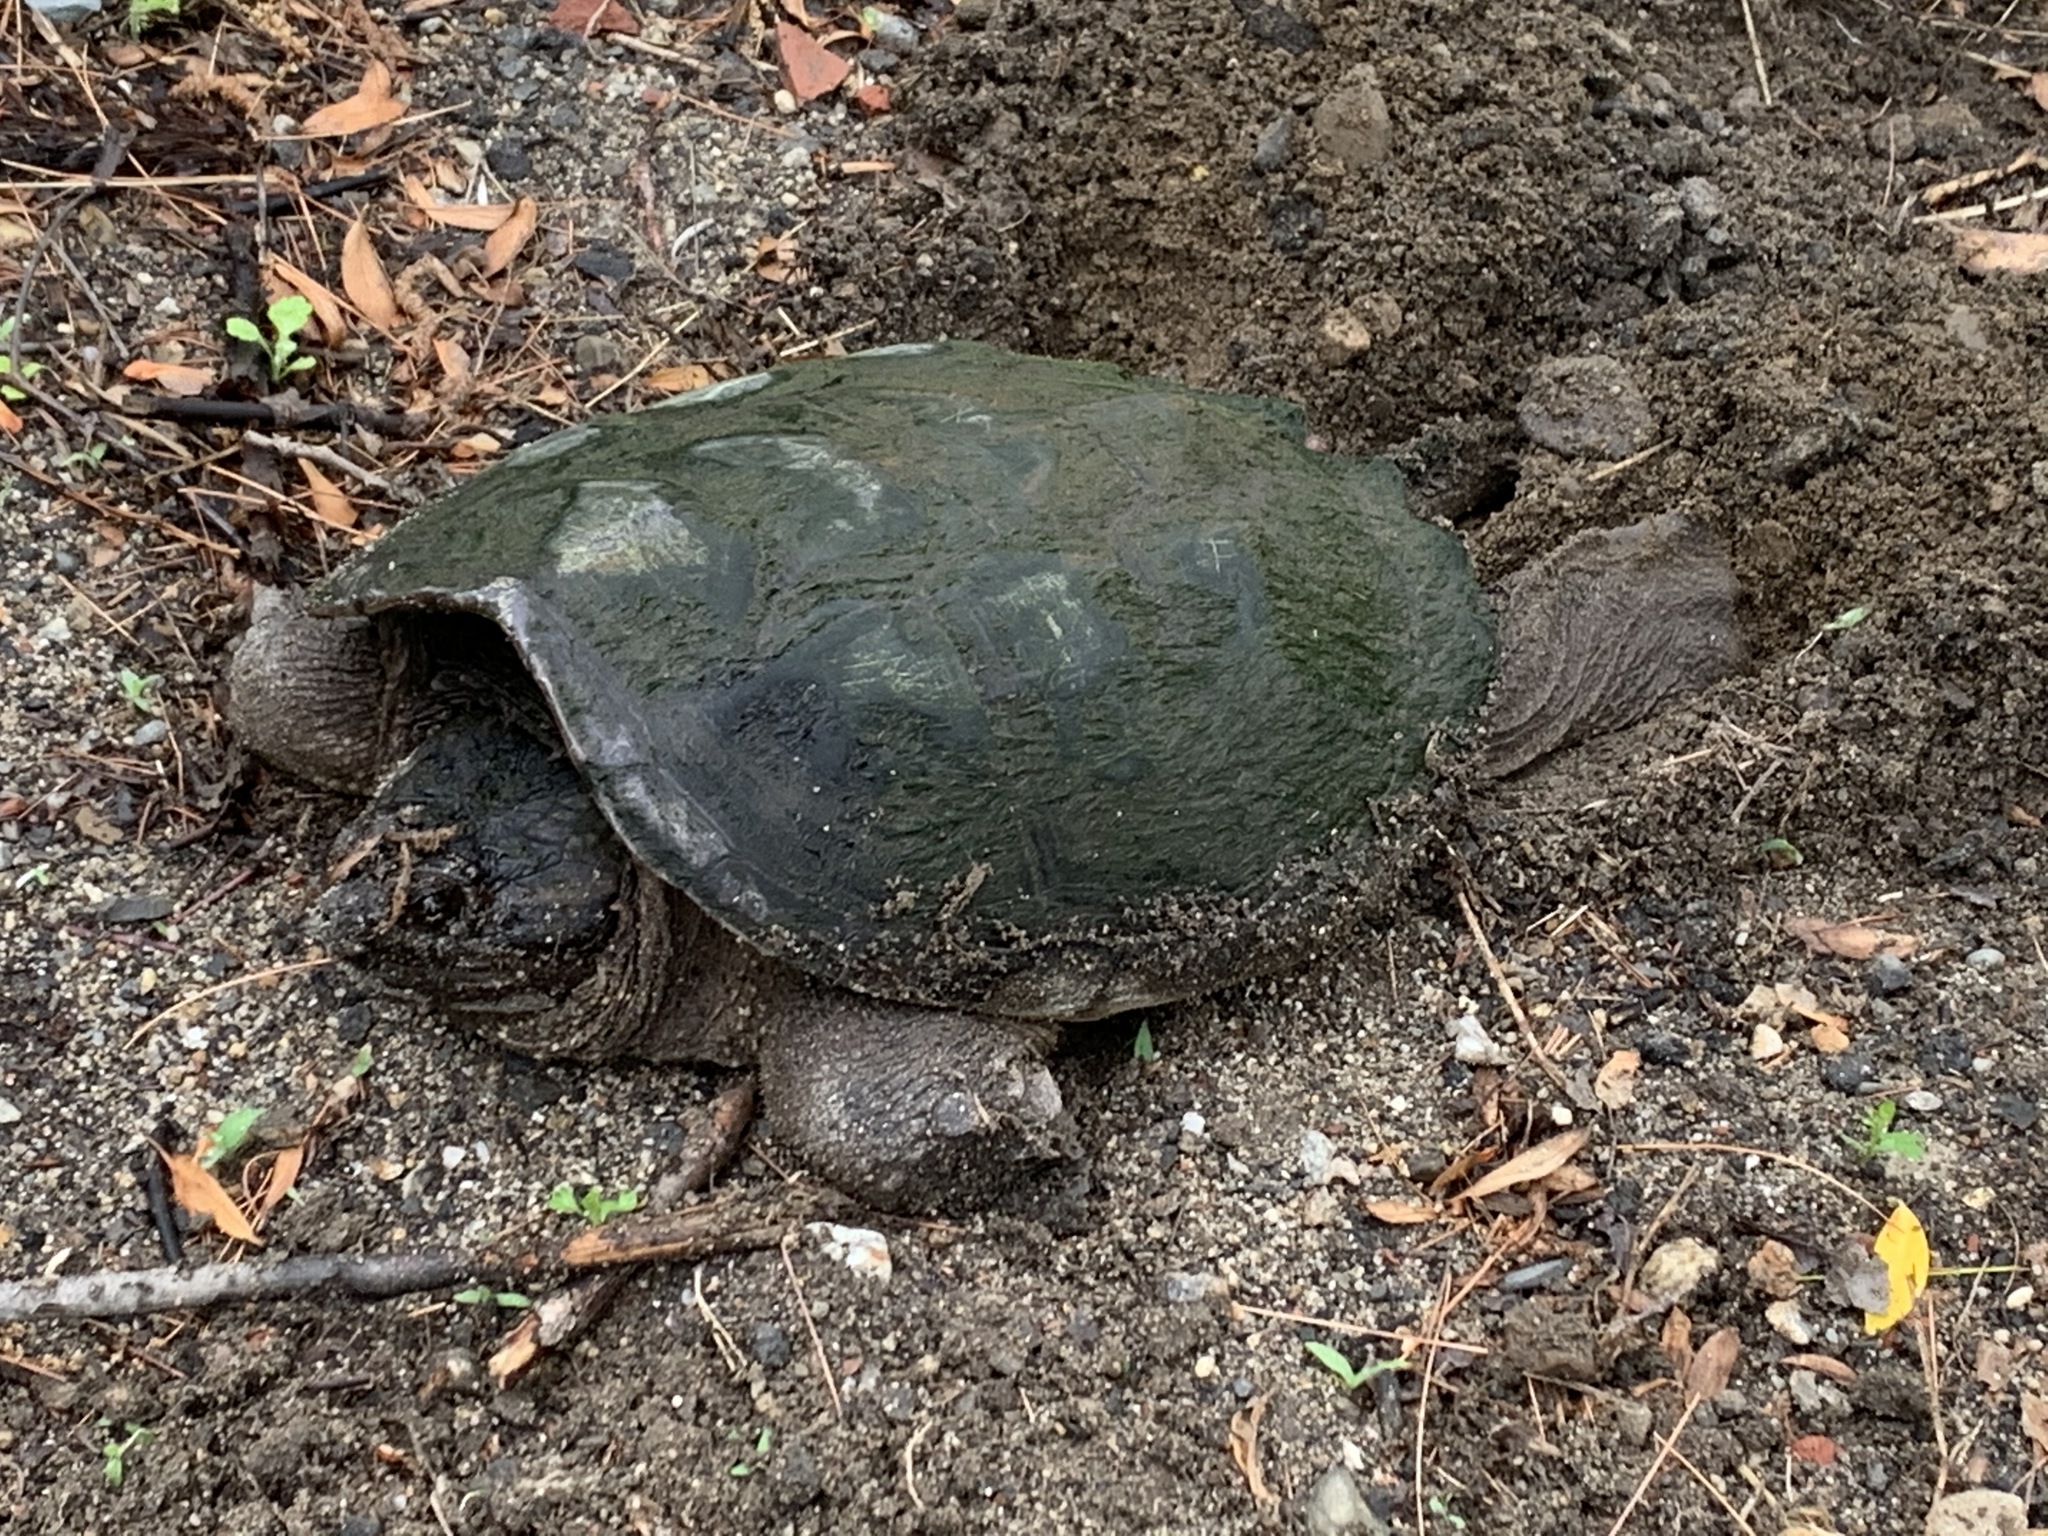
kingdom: Animalia
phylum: Chordata
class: Testudines
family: Chelydridae
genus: Chelydra
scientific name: Chelydra serpentina
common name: Common snapping turtle
